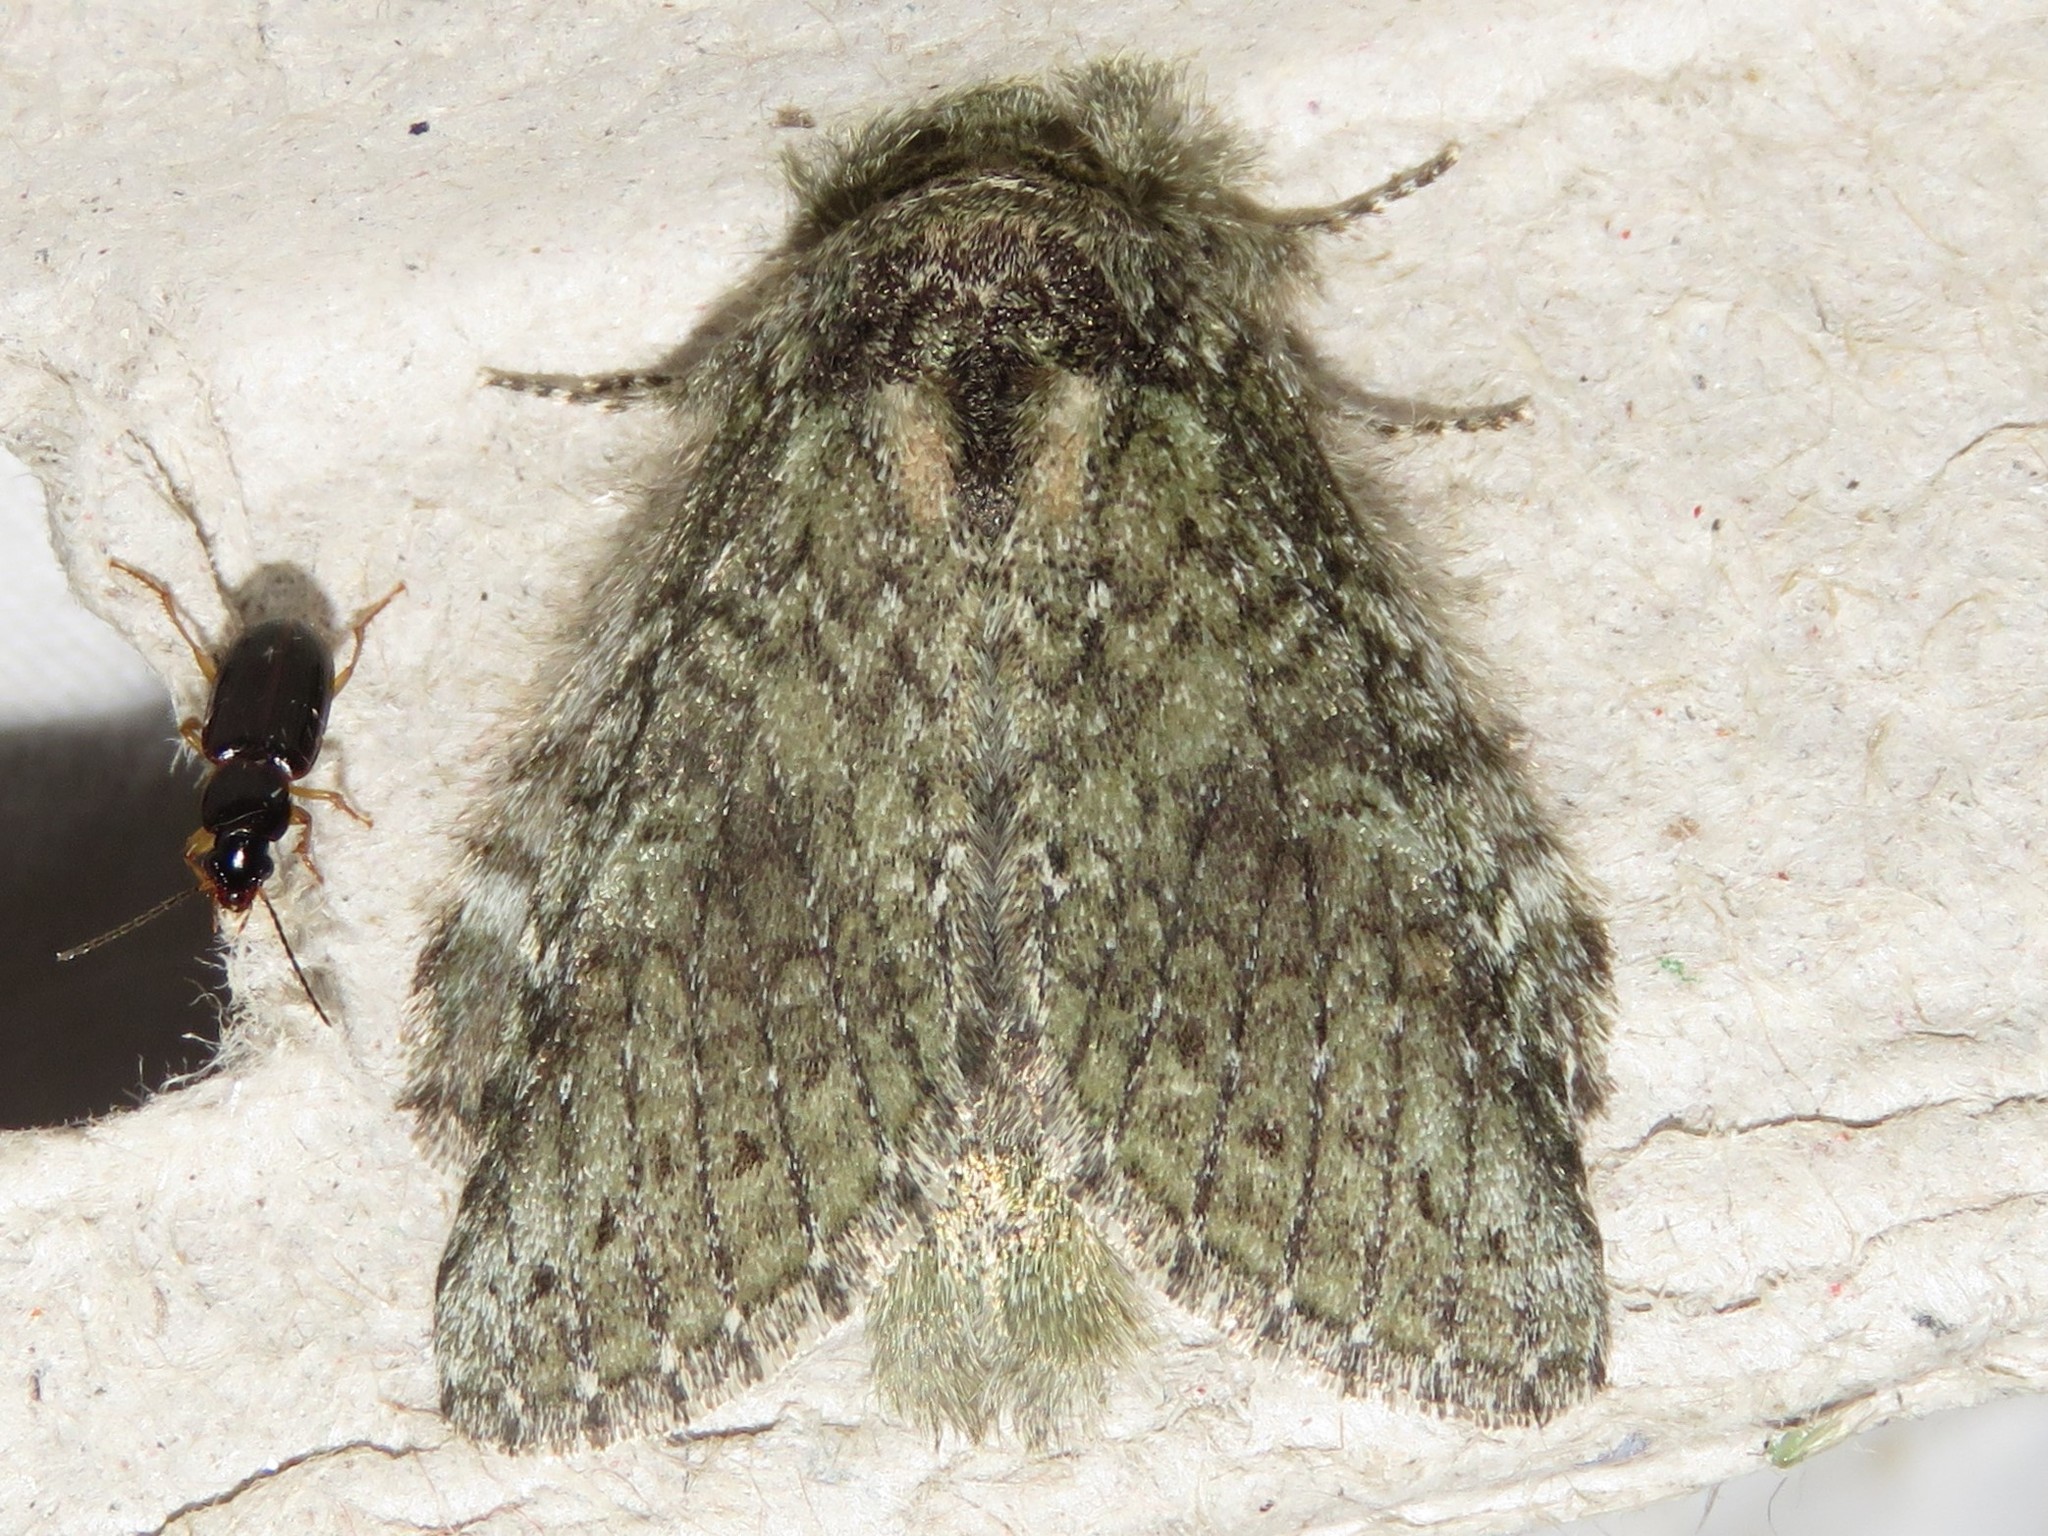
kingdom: Animalia
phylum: Arthropoda
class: Insecta
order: Lepidoptera
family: Notodontidae
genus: Disphragis
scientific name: Disphragis Cecrita guttivitta
